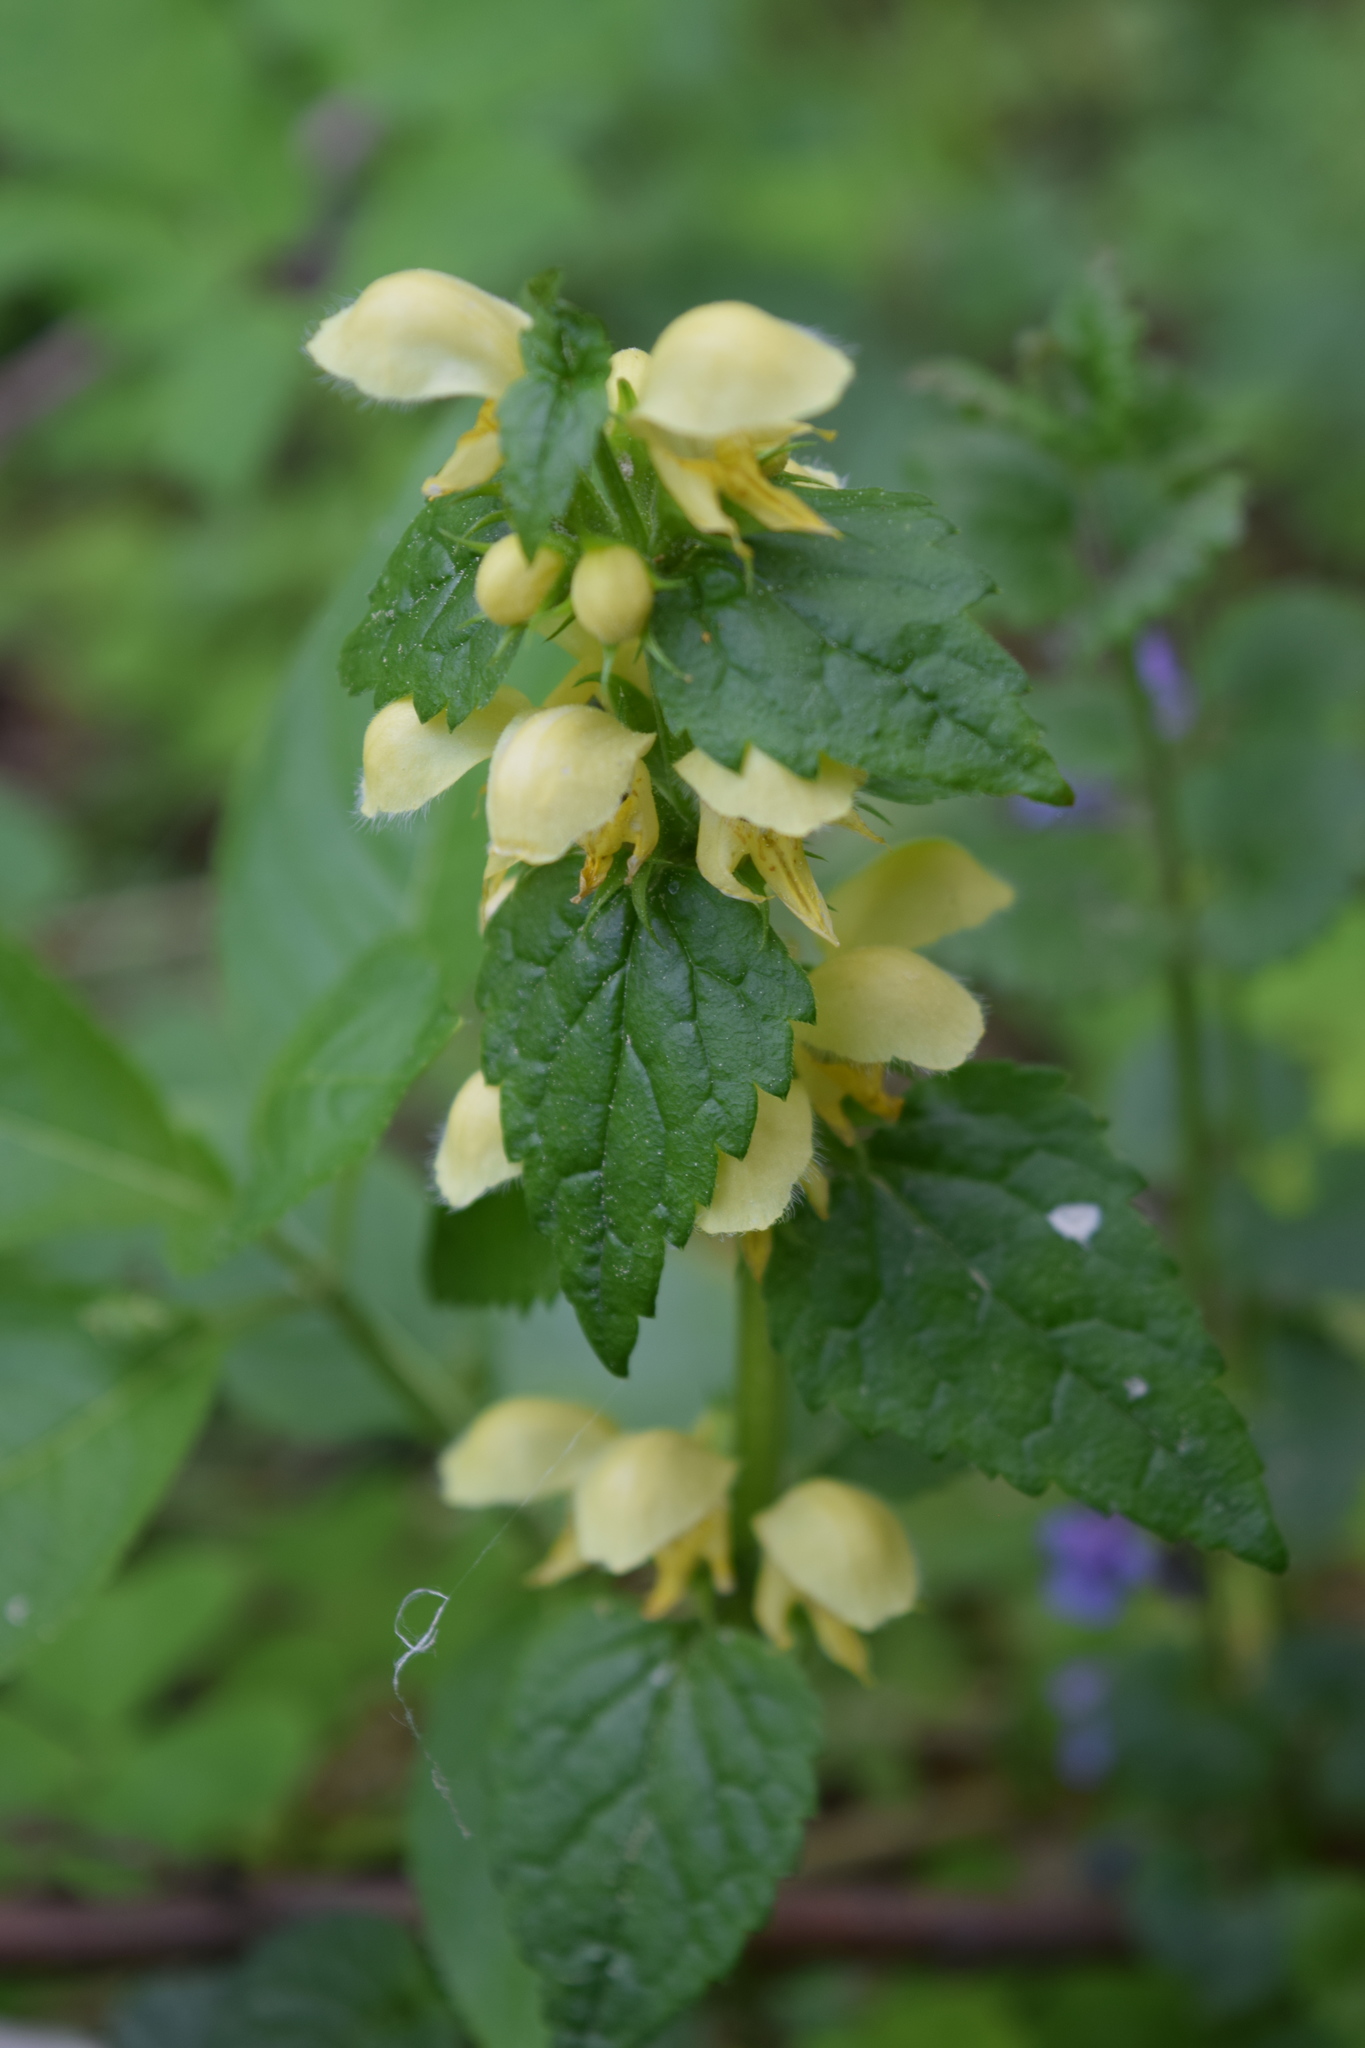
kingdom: Plantae
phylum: Tracheophyta
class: Magnoliopsida
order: Lamiales
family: Lamiaceae
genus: Lamium
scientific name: Lamium galeobdolon
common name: Yellow archangel
